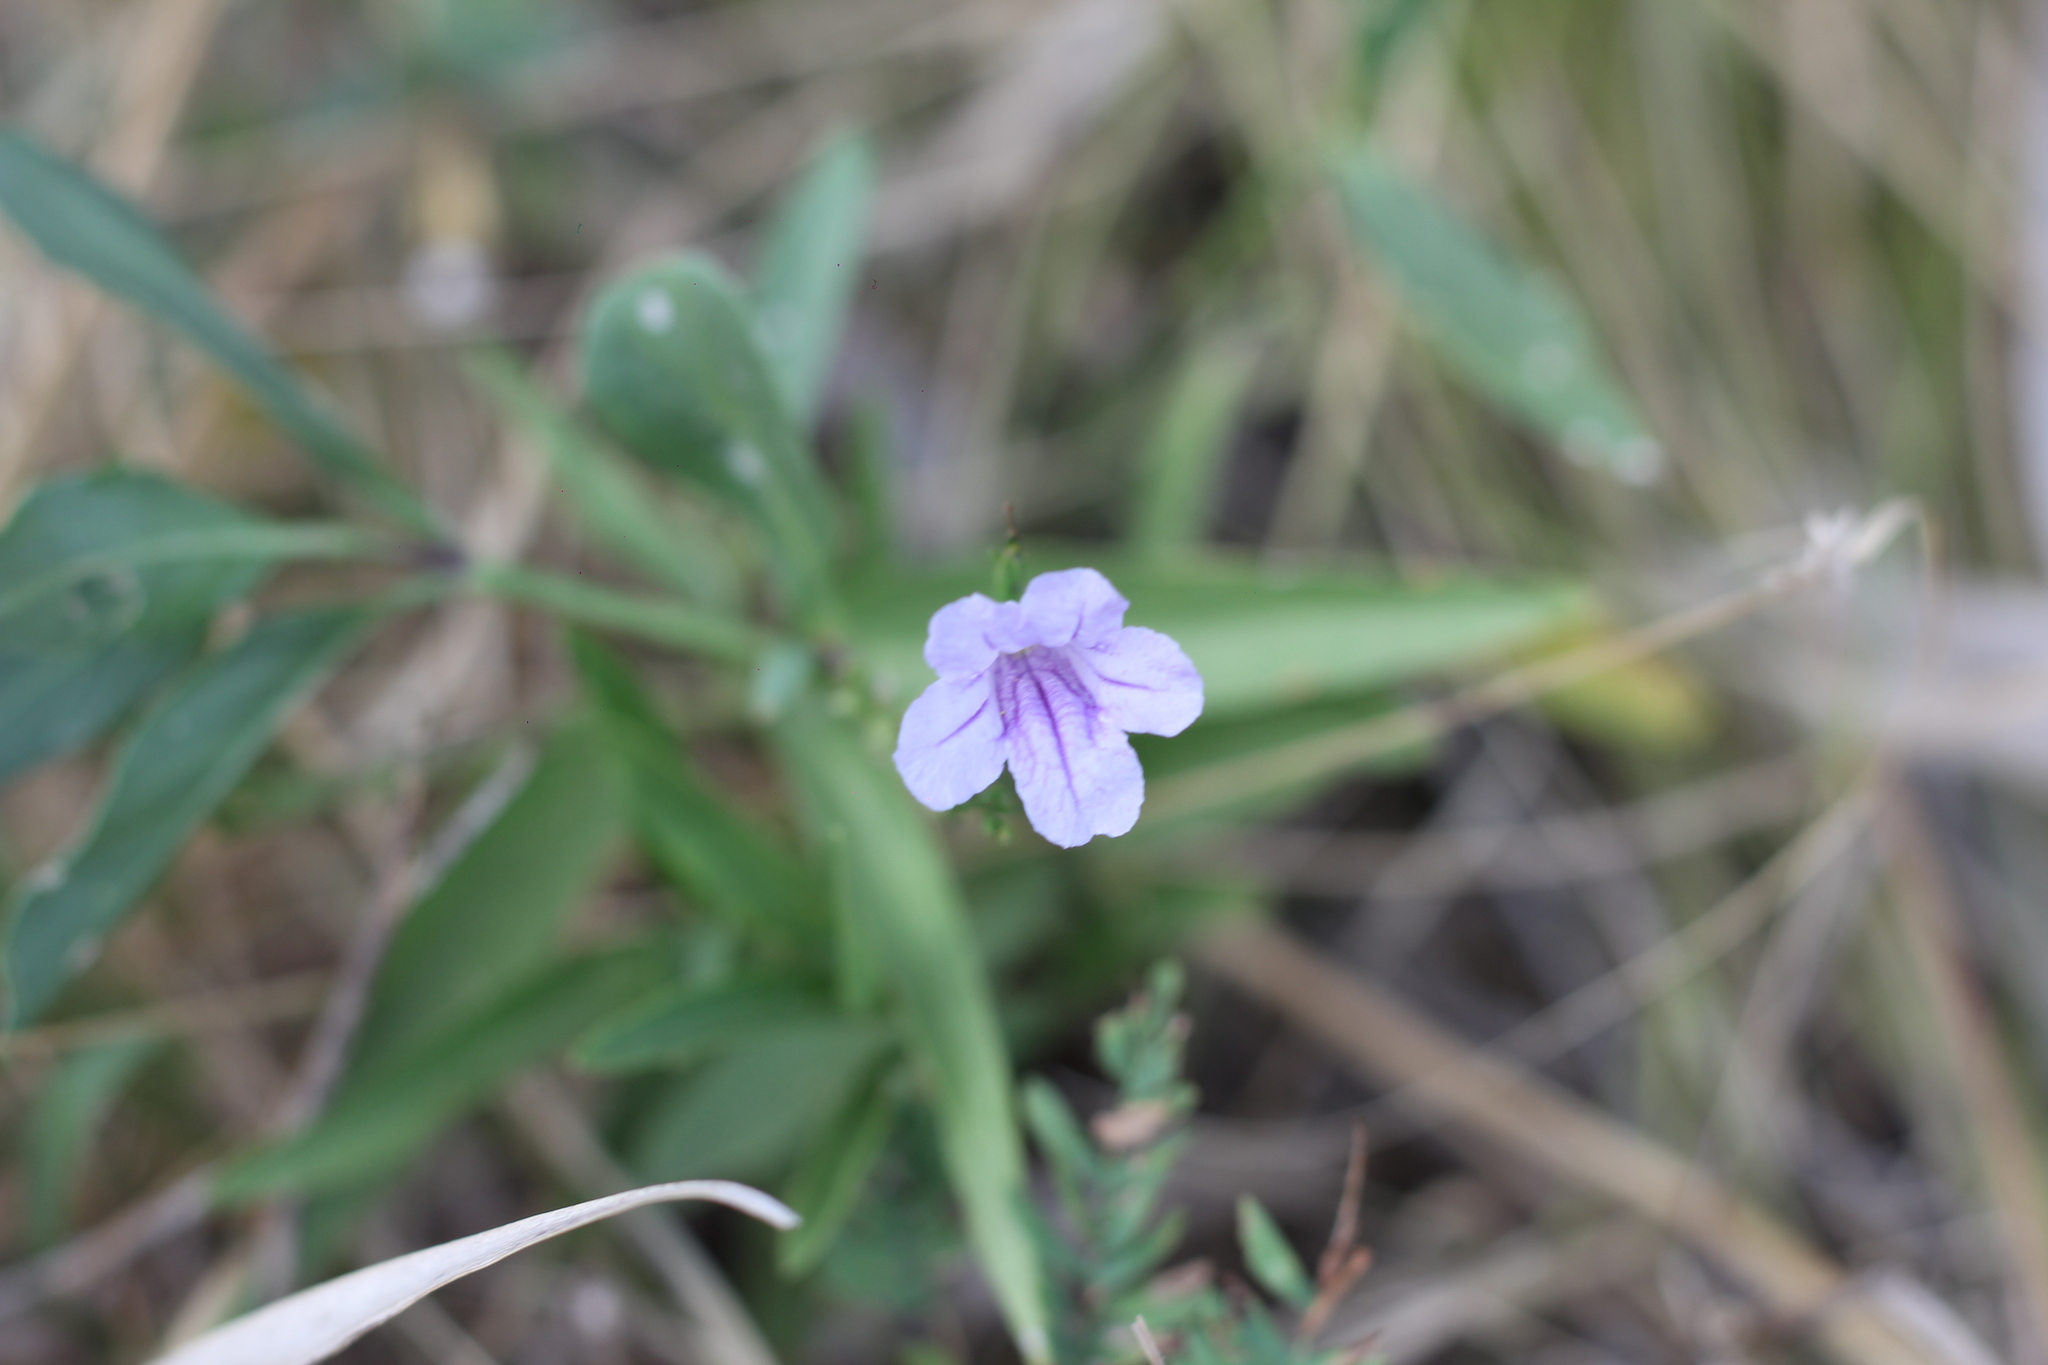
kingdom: Plantae
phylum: Tracheophyta
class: Magnoliopsida
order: Lamiales
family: Acanthaceae
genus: Ruellia
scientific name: Ruellia simplex
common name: Softseed wild petunia
